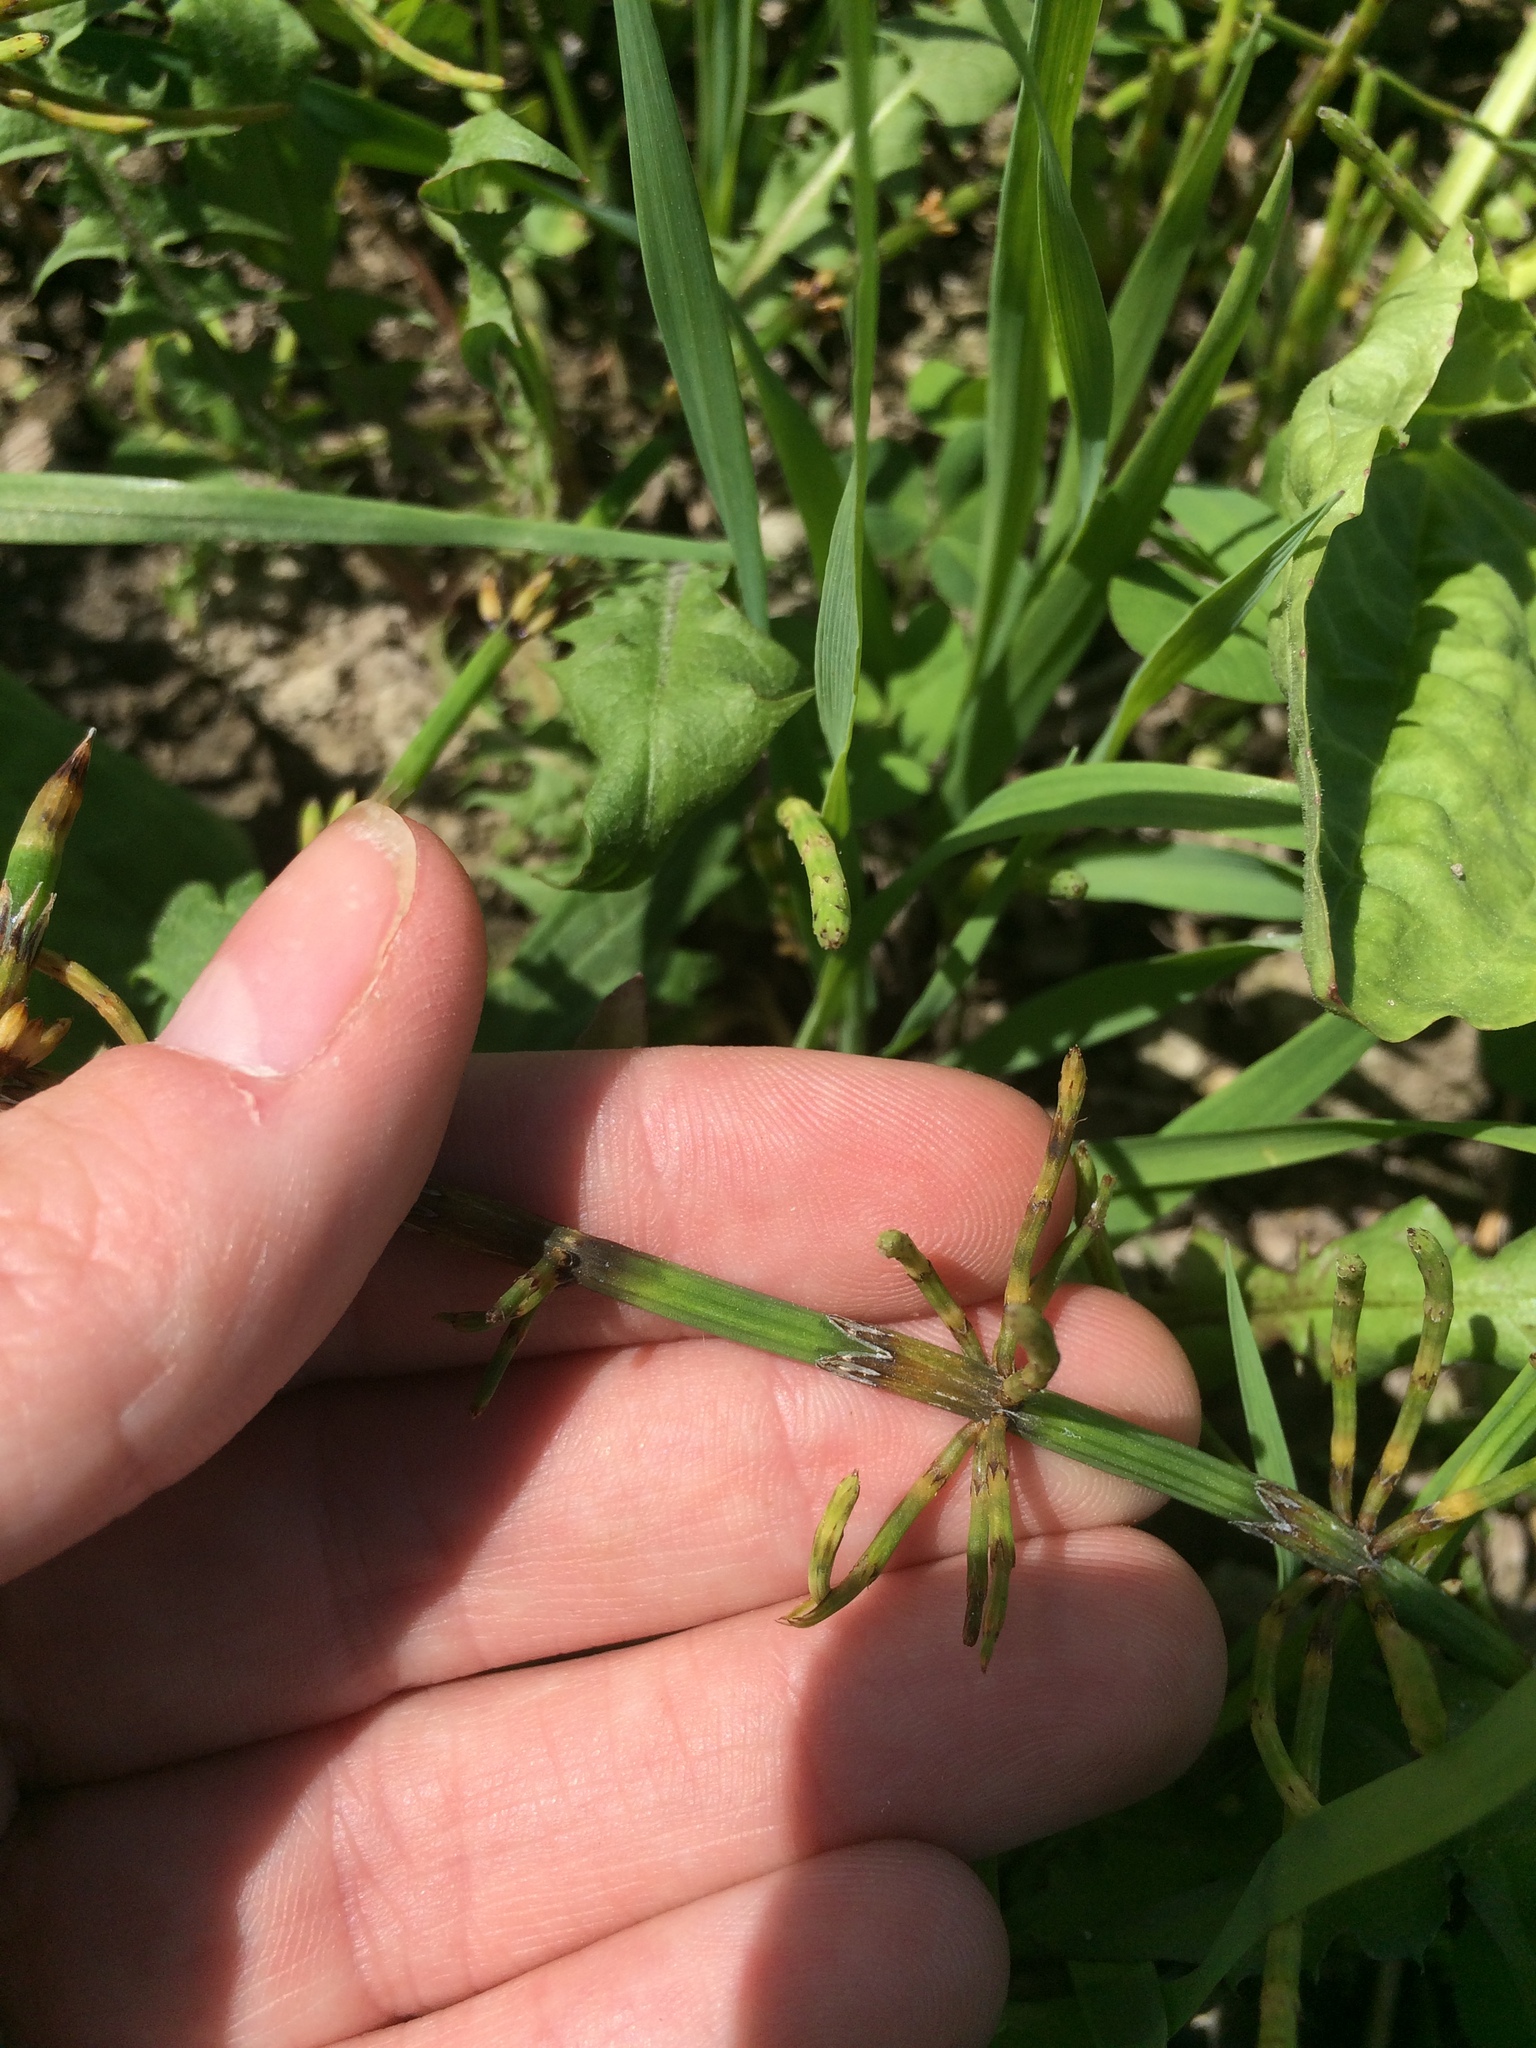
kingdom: Plantae
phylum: Tracheophyta
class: Polypodiopsida
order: Equisetales
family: Equisetaceae
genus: Equisetum
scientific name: Equisetum palustre
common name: Marsh horsetail
